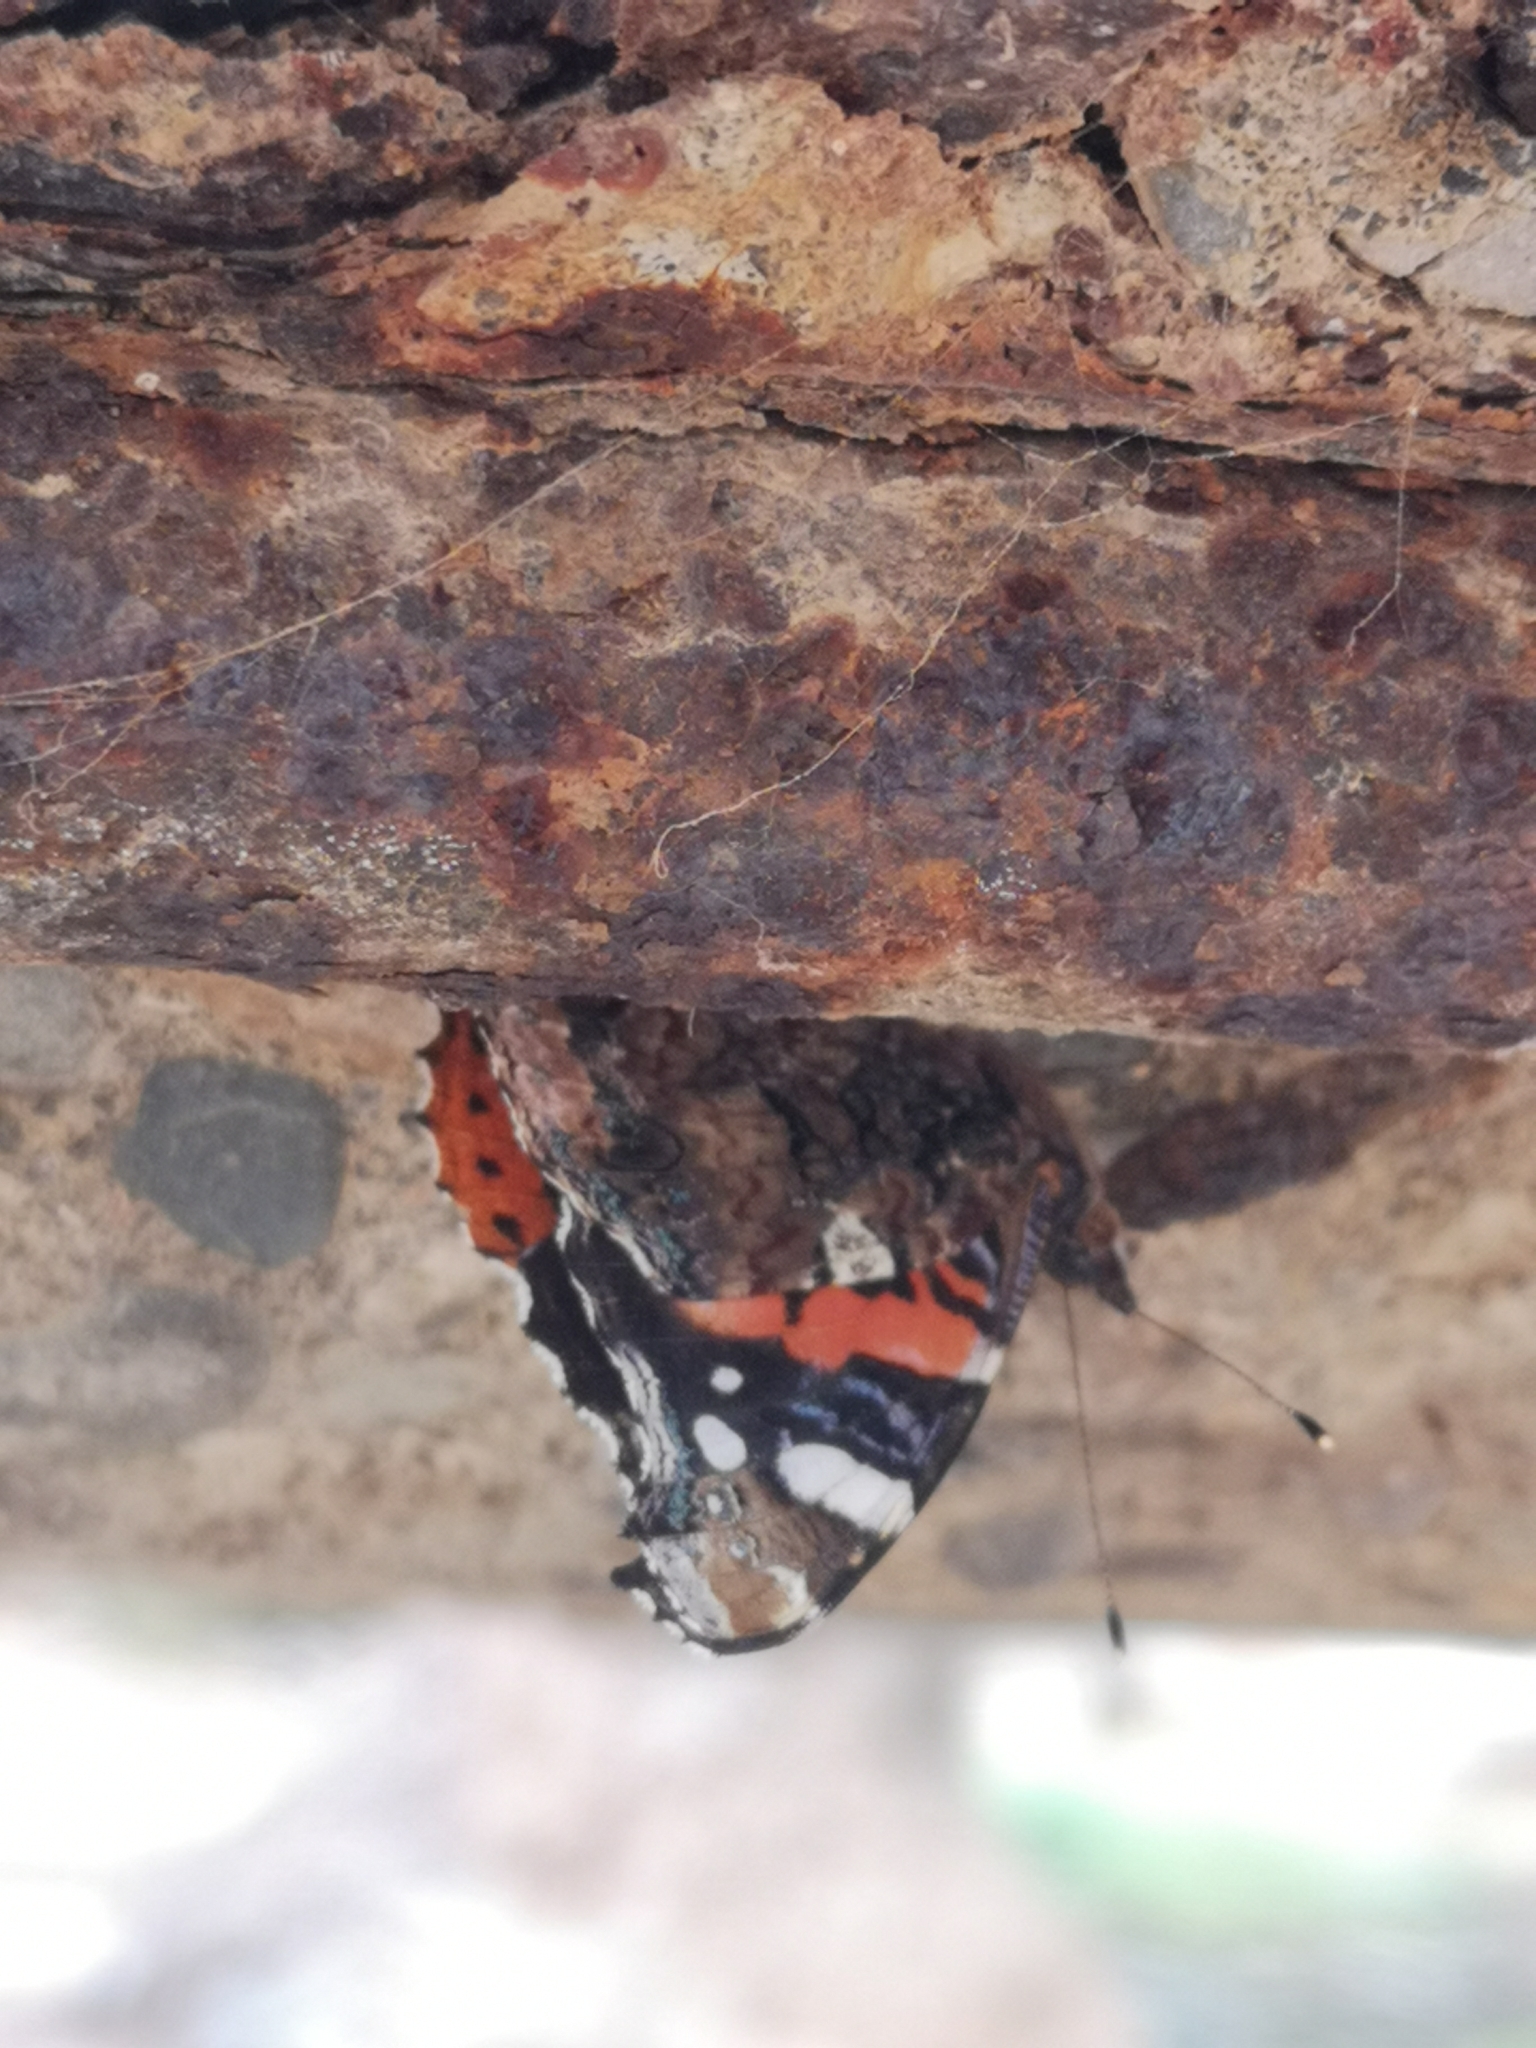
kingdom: Animalia
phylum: Arthropoda
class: Insecta
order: Lepidoptera
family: Nymphalidae
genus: Vanessa
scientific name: Vanessa atalanta
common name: Red admiral
